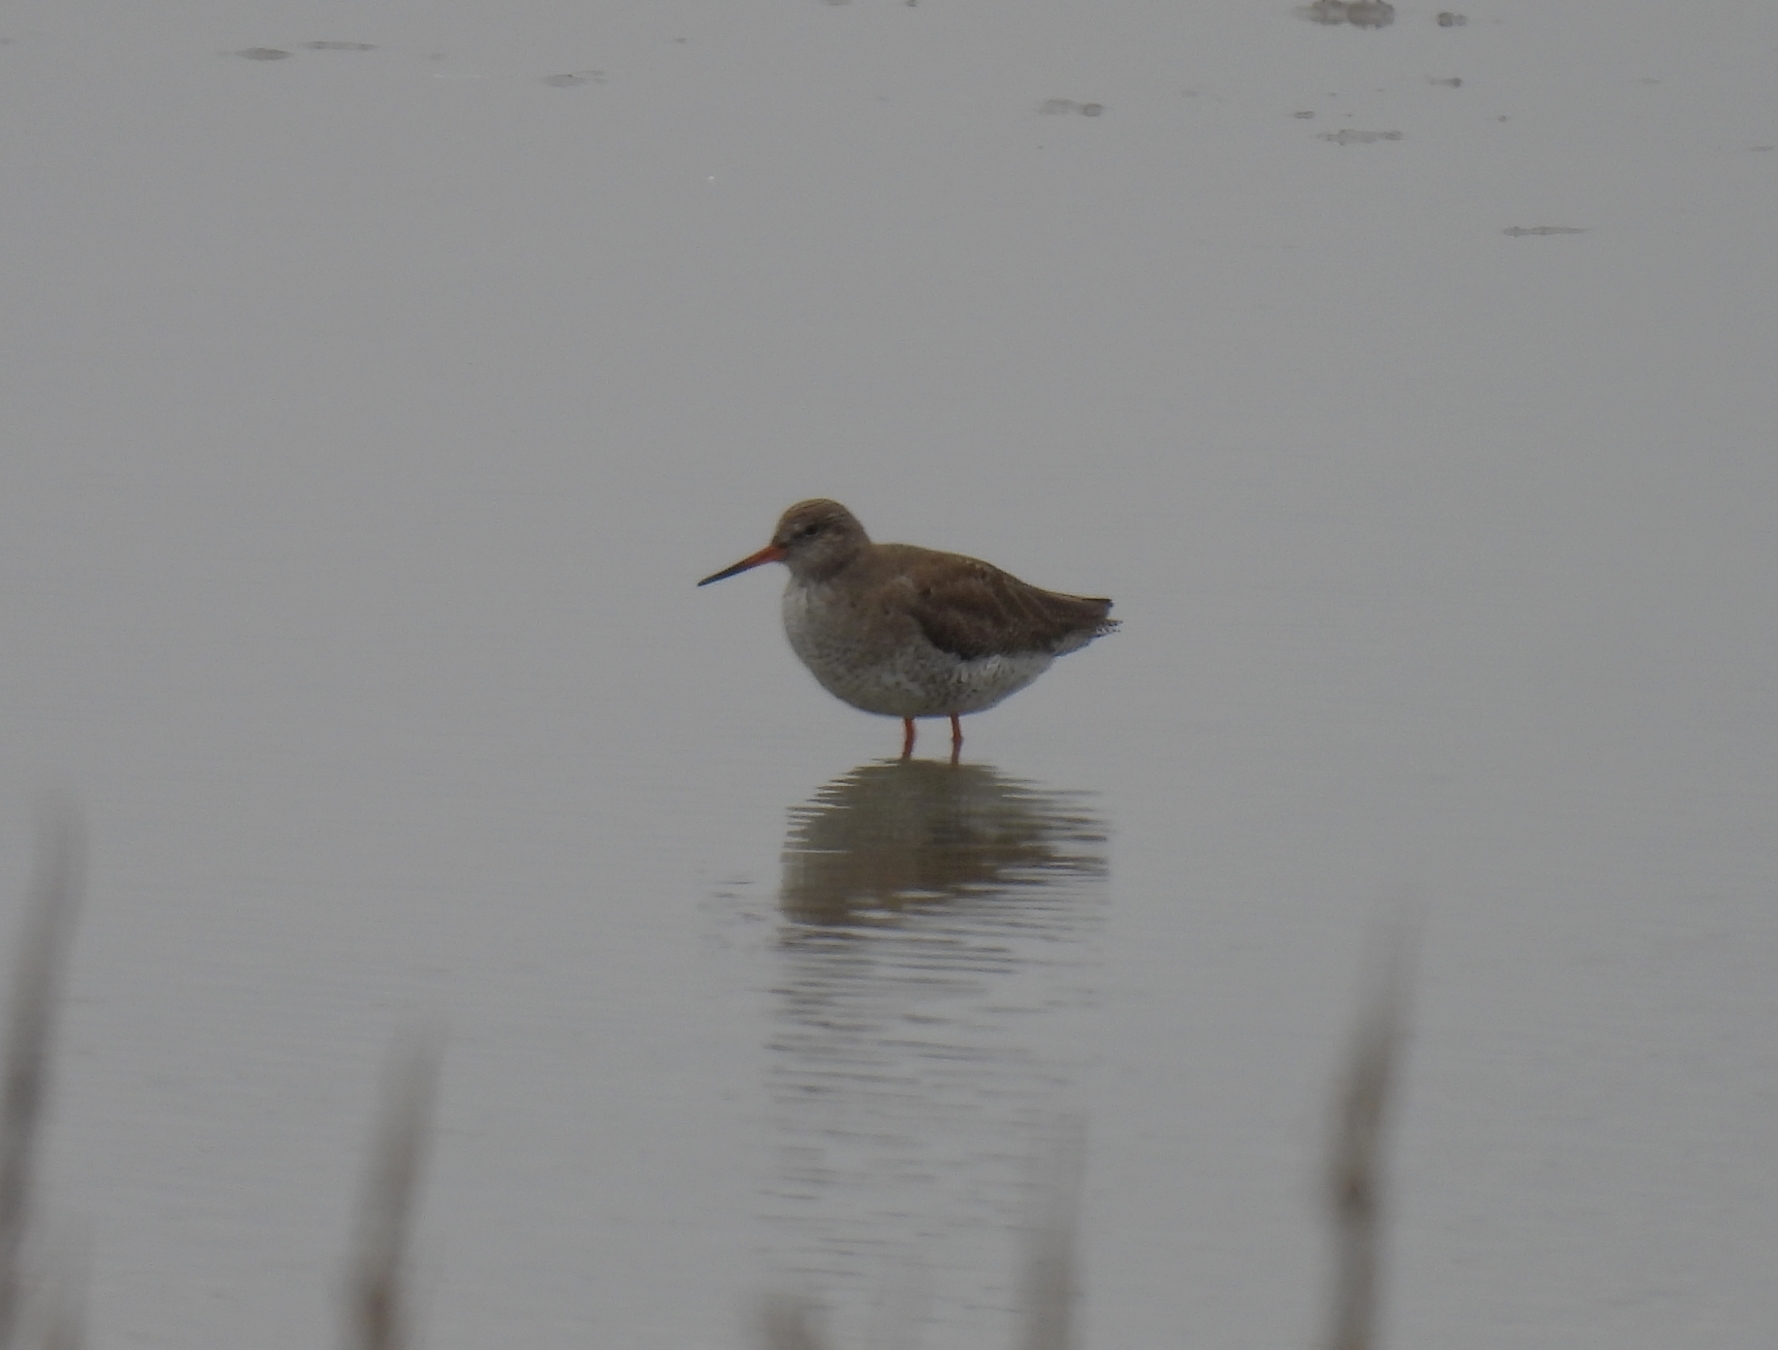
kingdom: Animalia
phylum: Chordata
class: Aves
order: Charadriiformes
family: Scolopacidae
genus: Tringa
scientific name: Tringa totanus
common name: Common redshank
